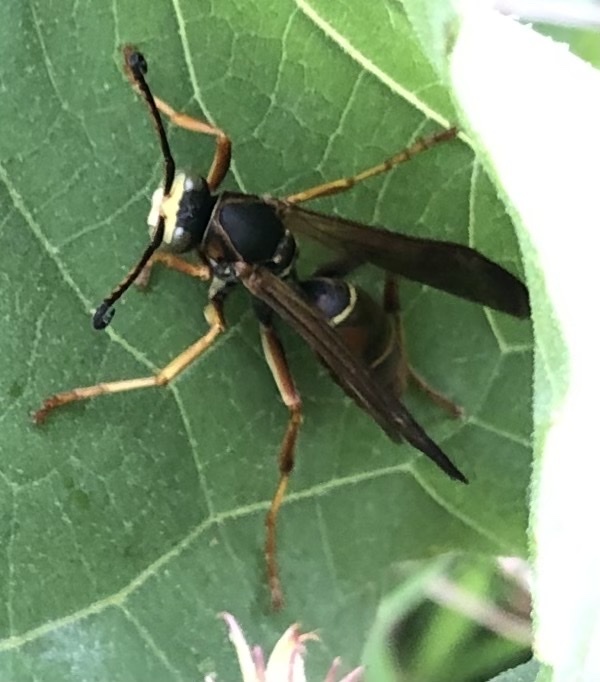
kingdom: Animalia
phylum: Arthropoda
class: Insecta
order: Hymenoptera
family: Eumenidae
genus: Polistes
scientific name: Polistes fuscatus
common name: Dark paper wasp
